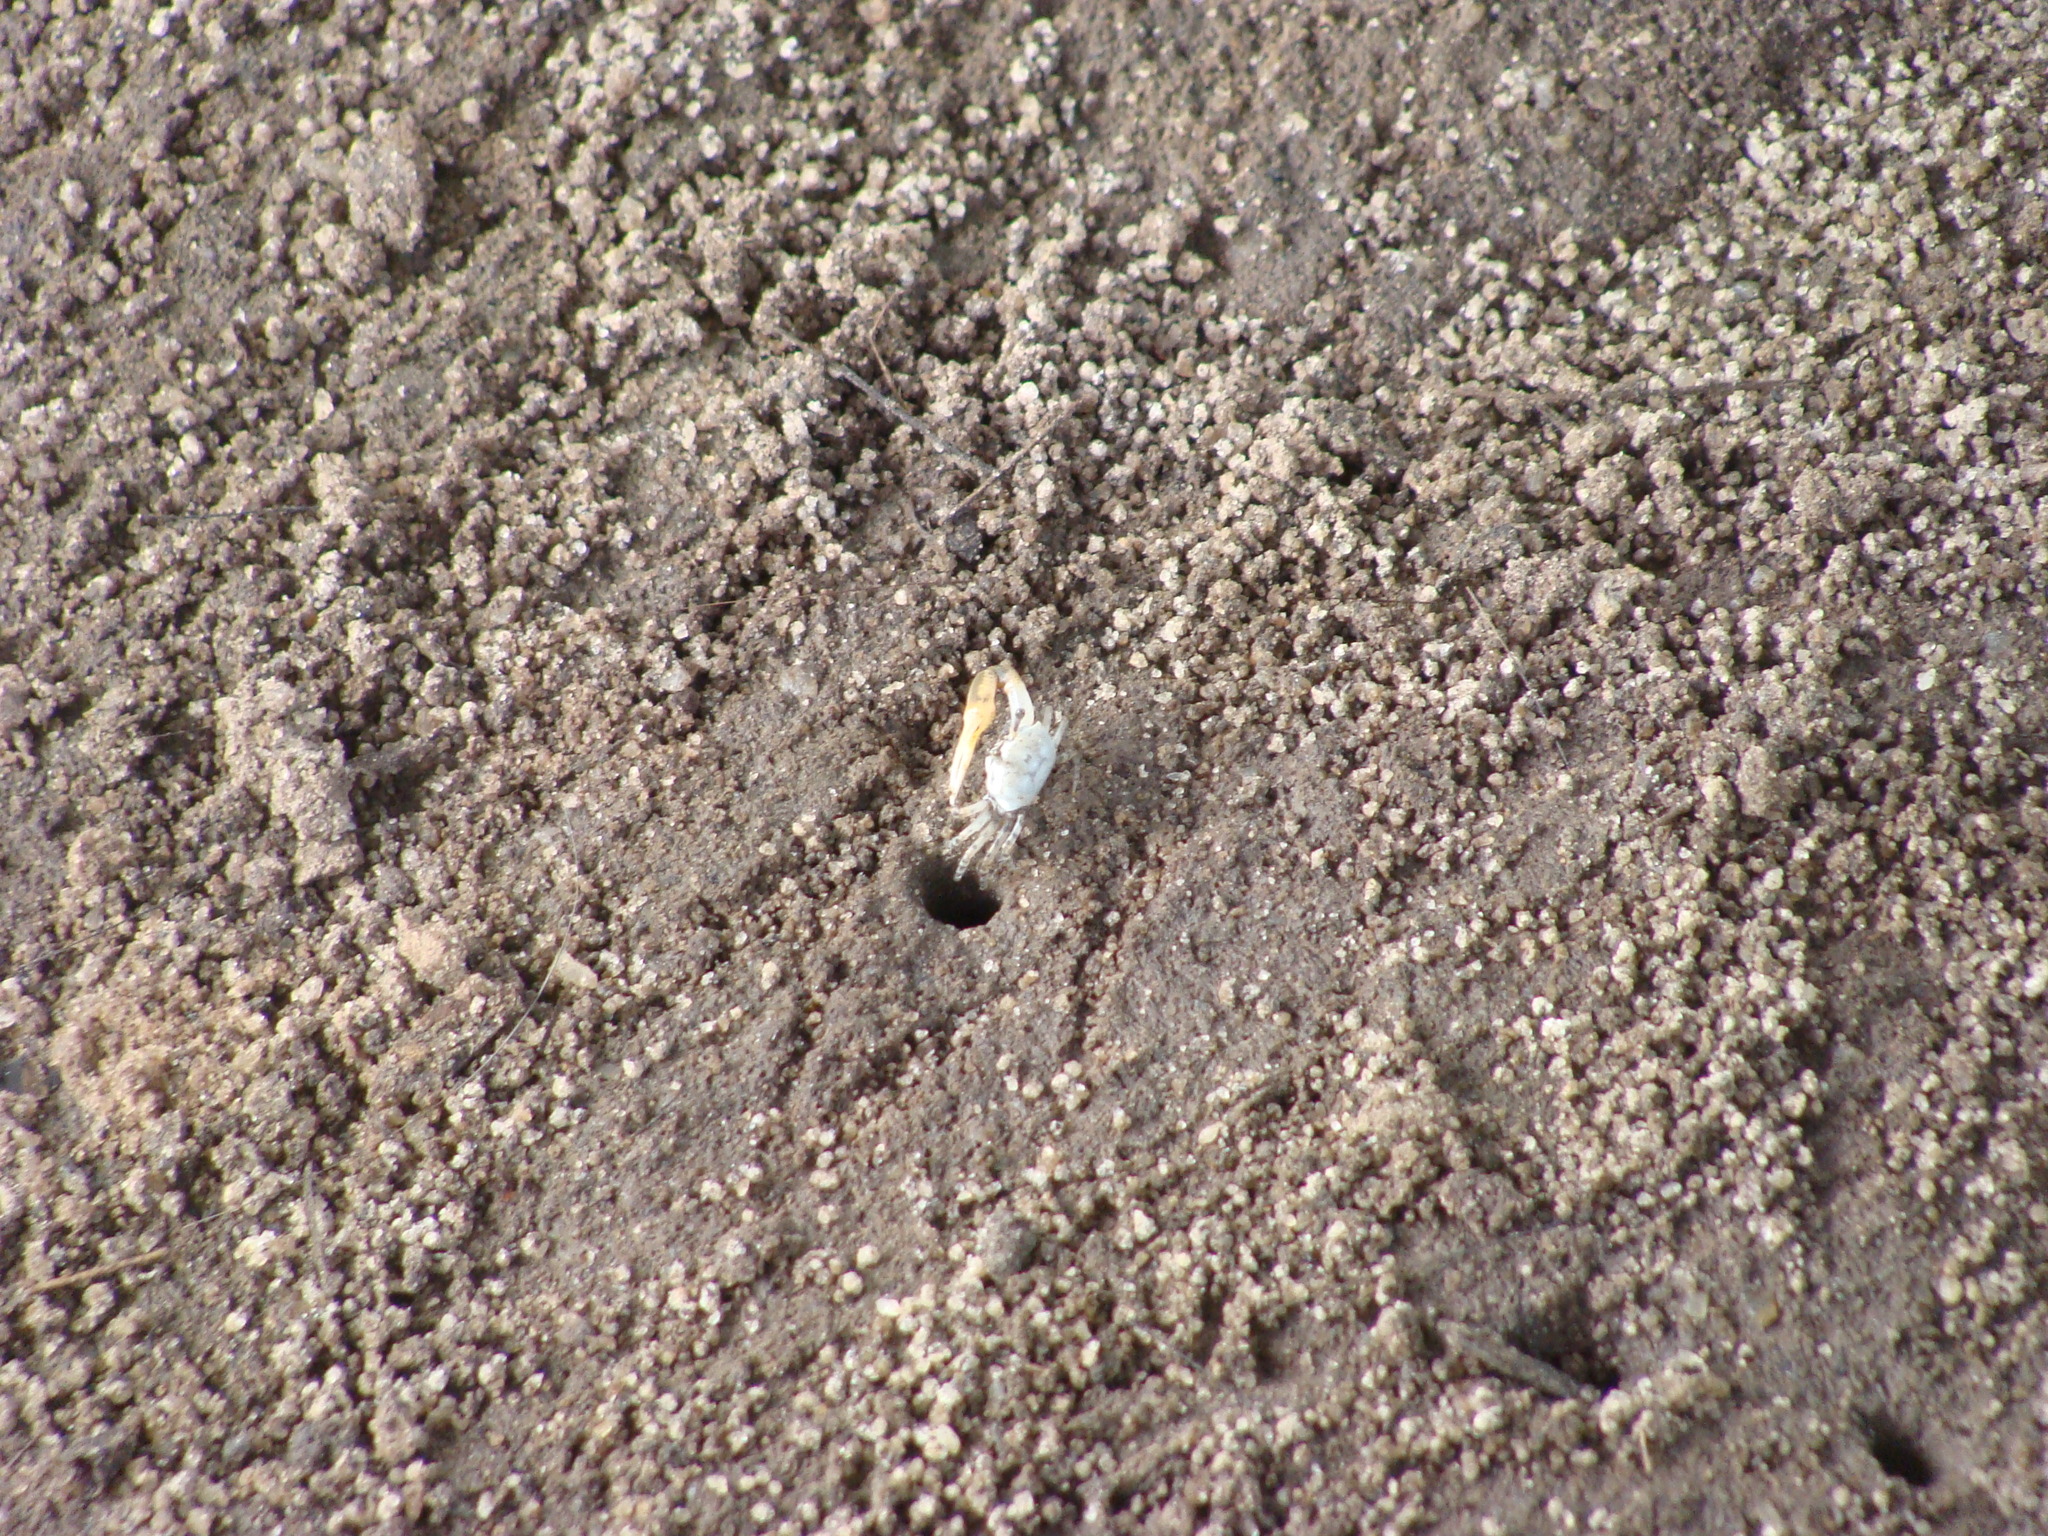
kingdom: Animalia
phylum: Arthropoda
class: Malacostraca
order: Decapoda
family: Ocypodidae
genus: Leptuca
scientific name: Leptuca leptodactyla
